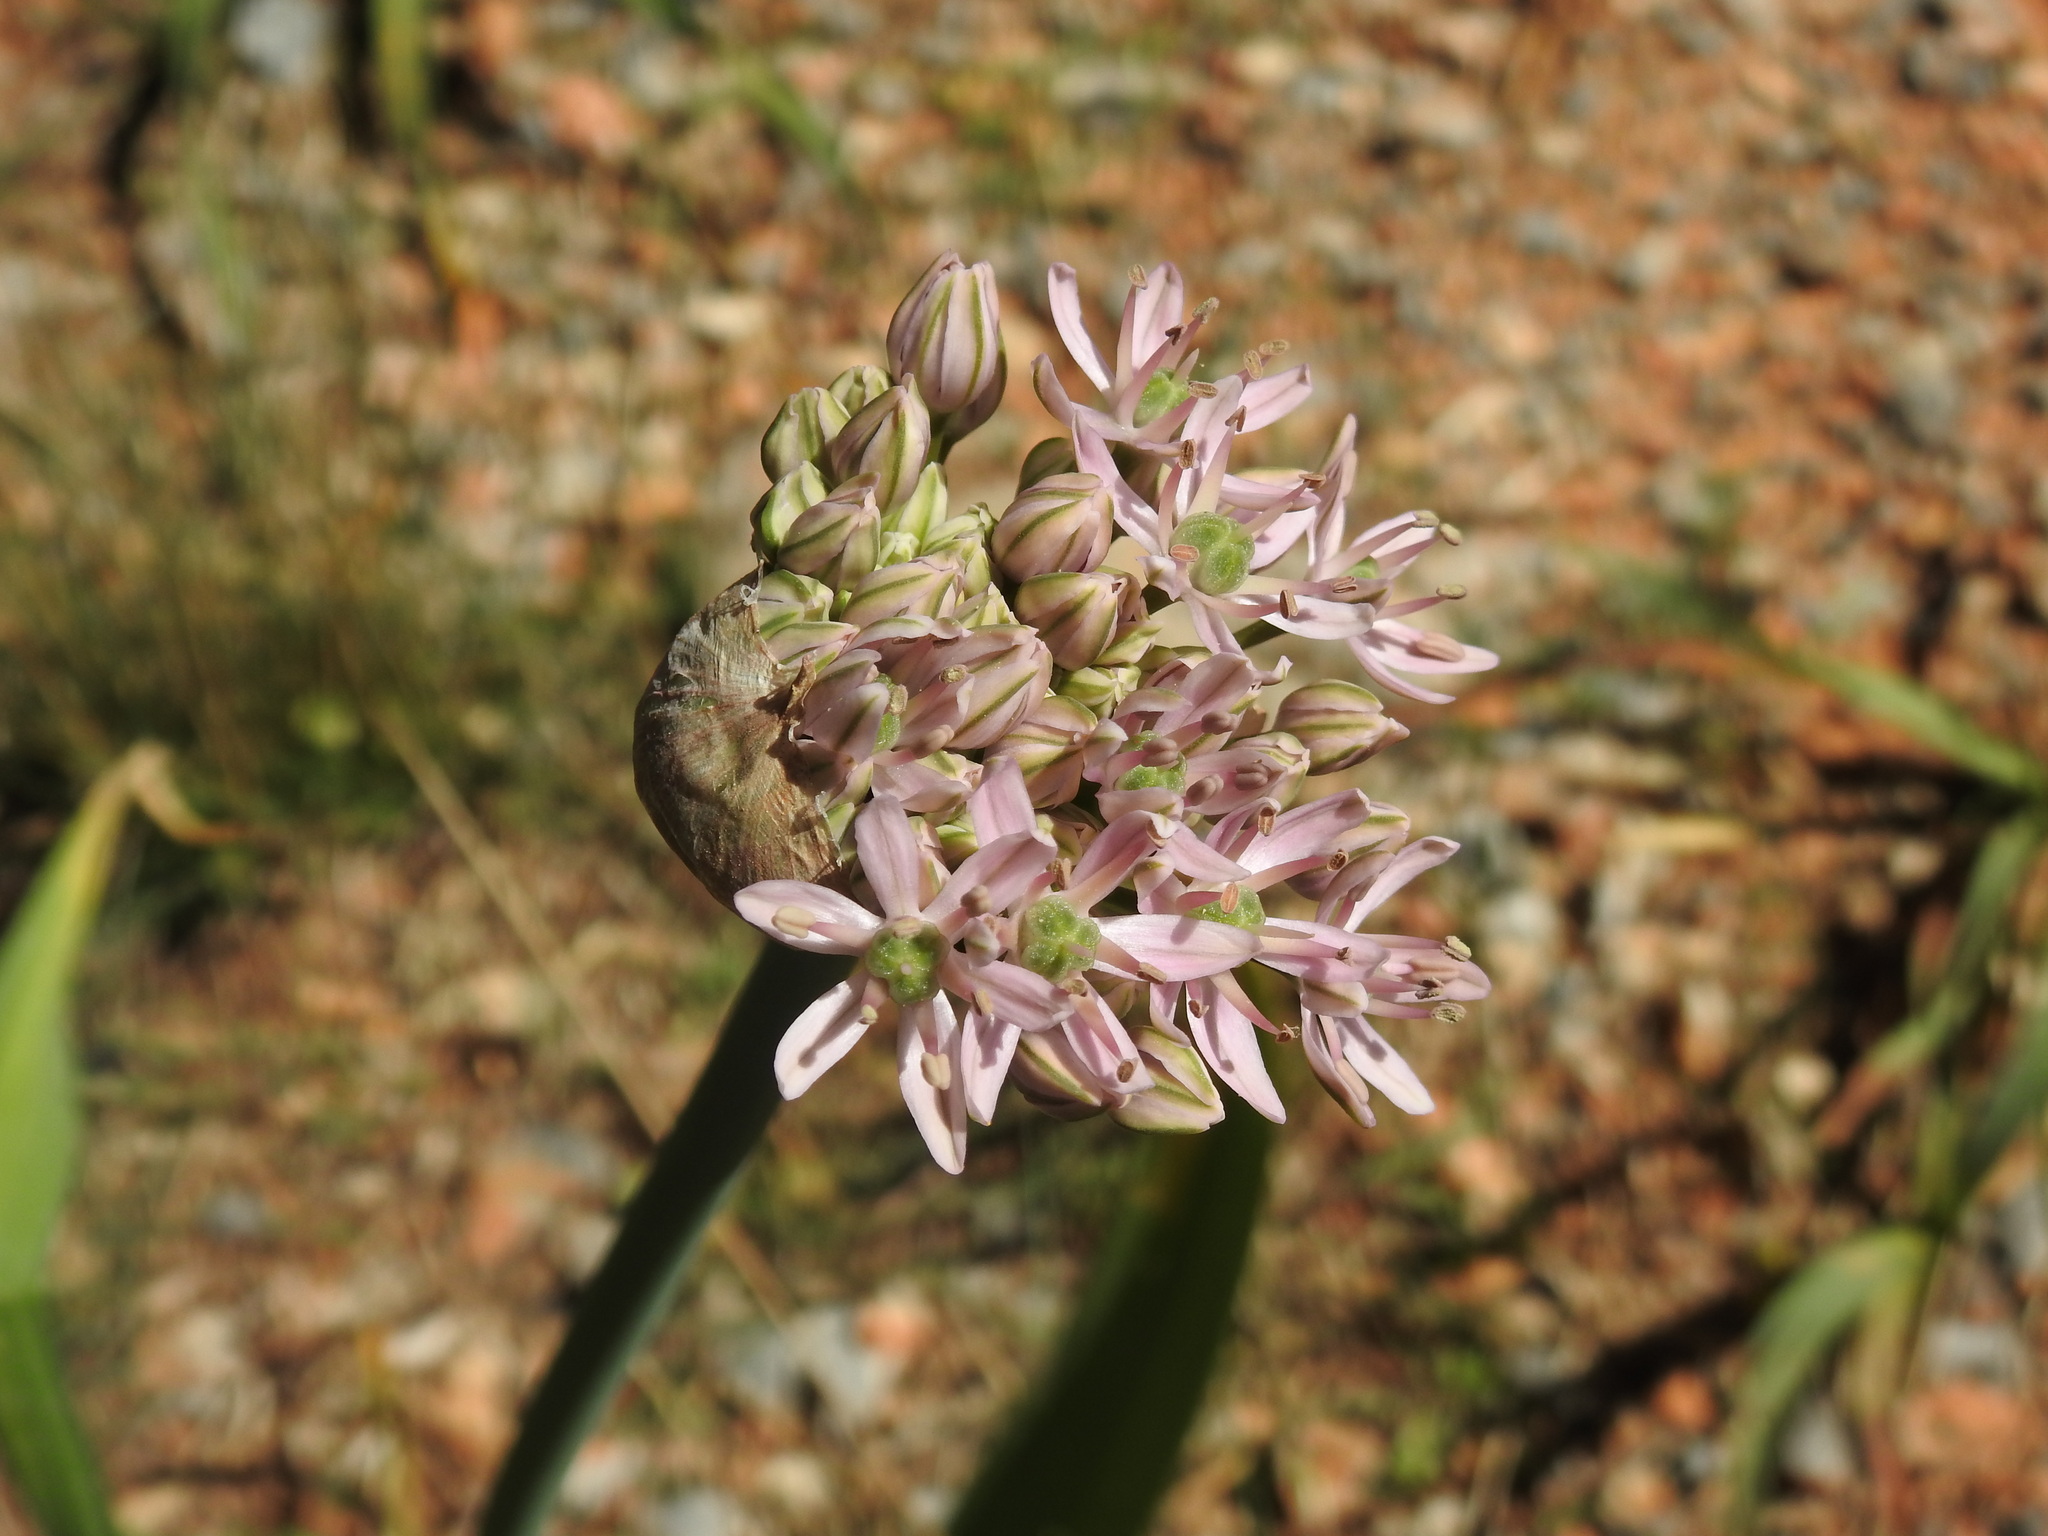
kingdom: Plantae
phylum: Tracheophyta
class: Liliopsida
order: Asparagales
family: Amaryllidaceae
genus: Allium
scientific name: Allium nigrum
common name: Black garlic
